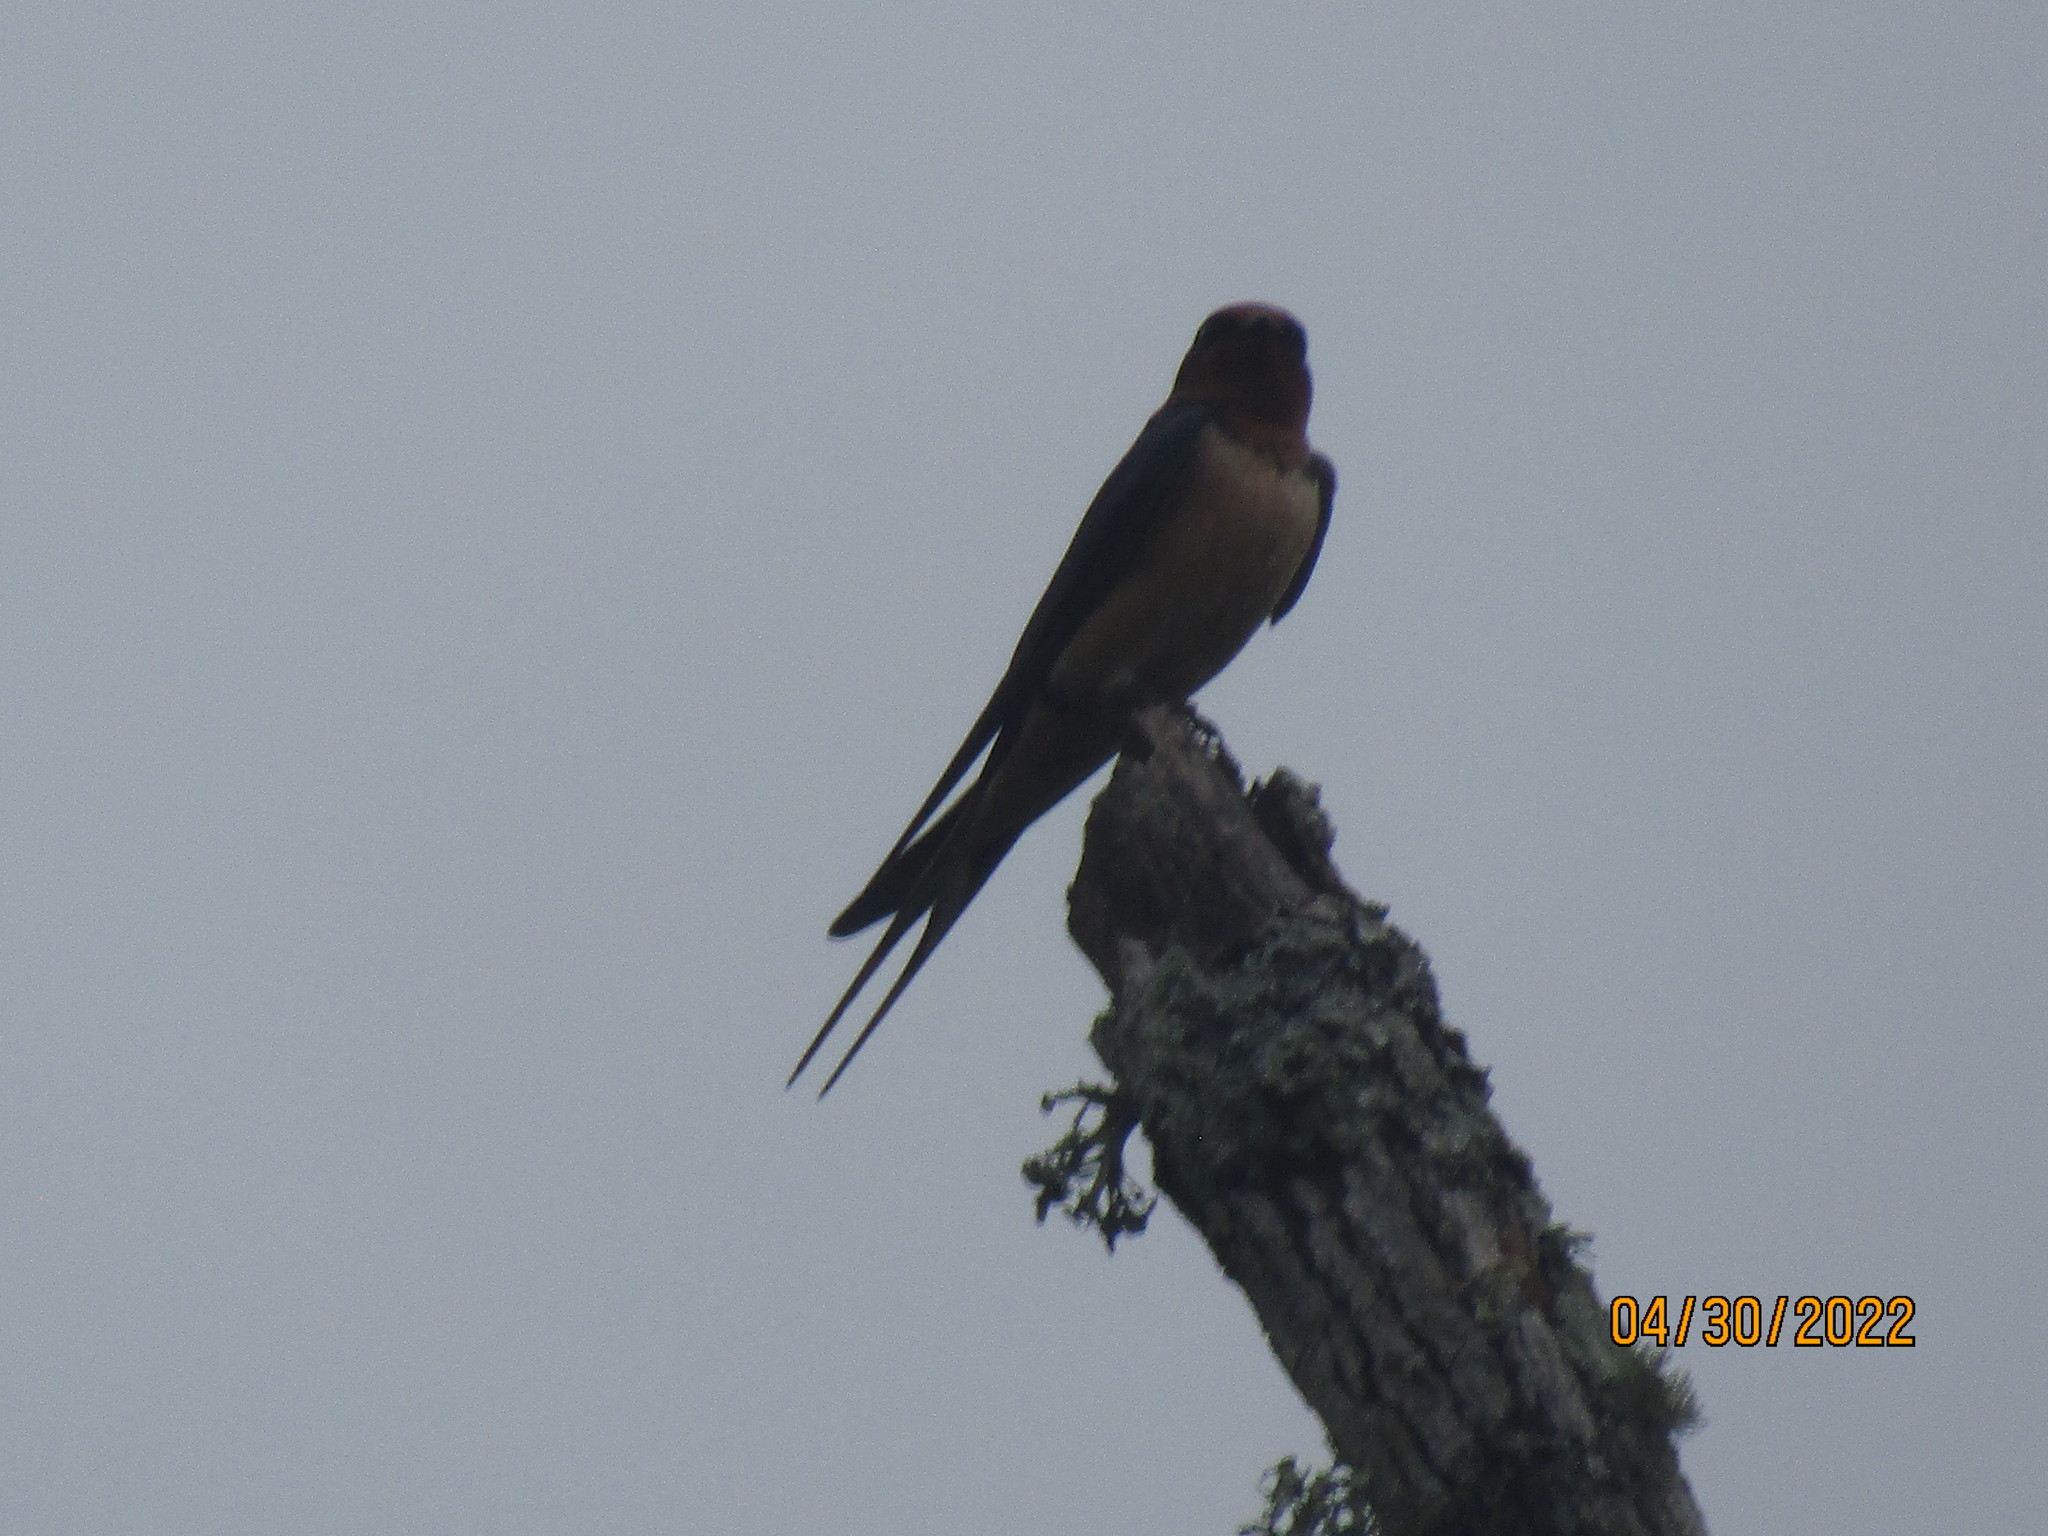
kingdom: Animalia
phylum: Chordata
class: Aves
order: Passeriformes
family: Hirundinidae
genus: Hirundo
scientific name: Hirundo rustica
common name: Barn swallow
